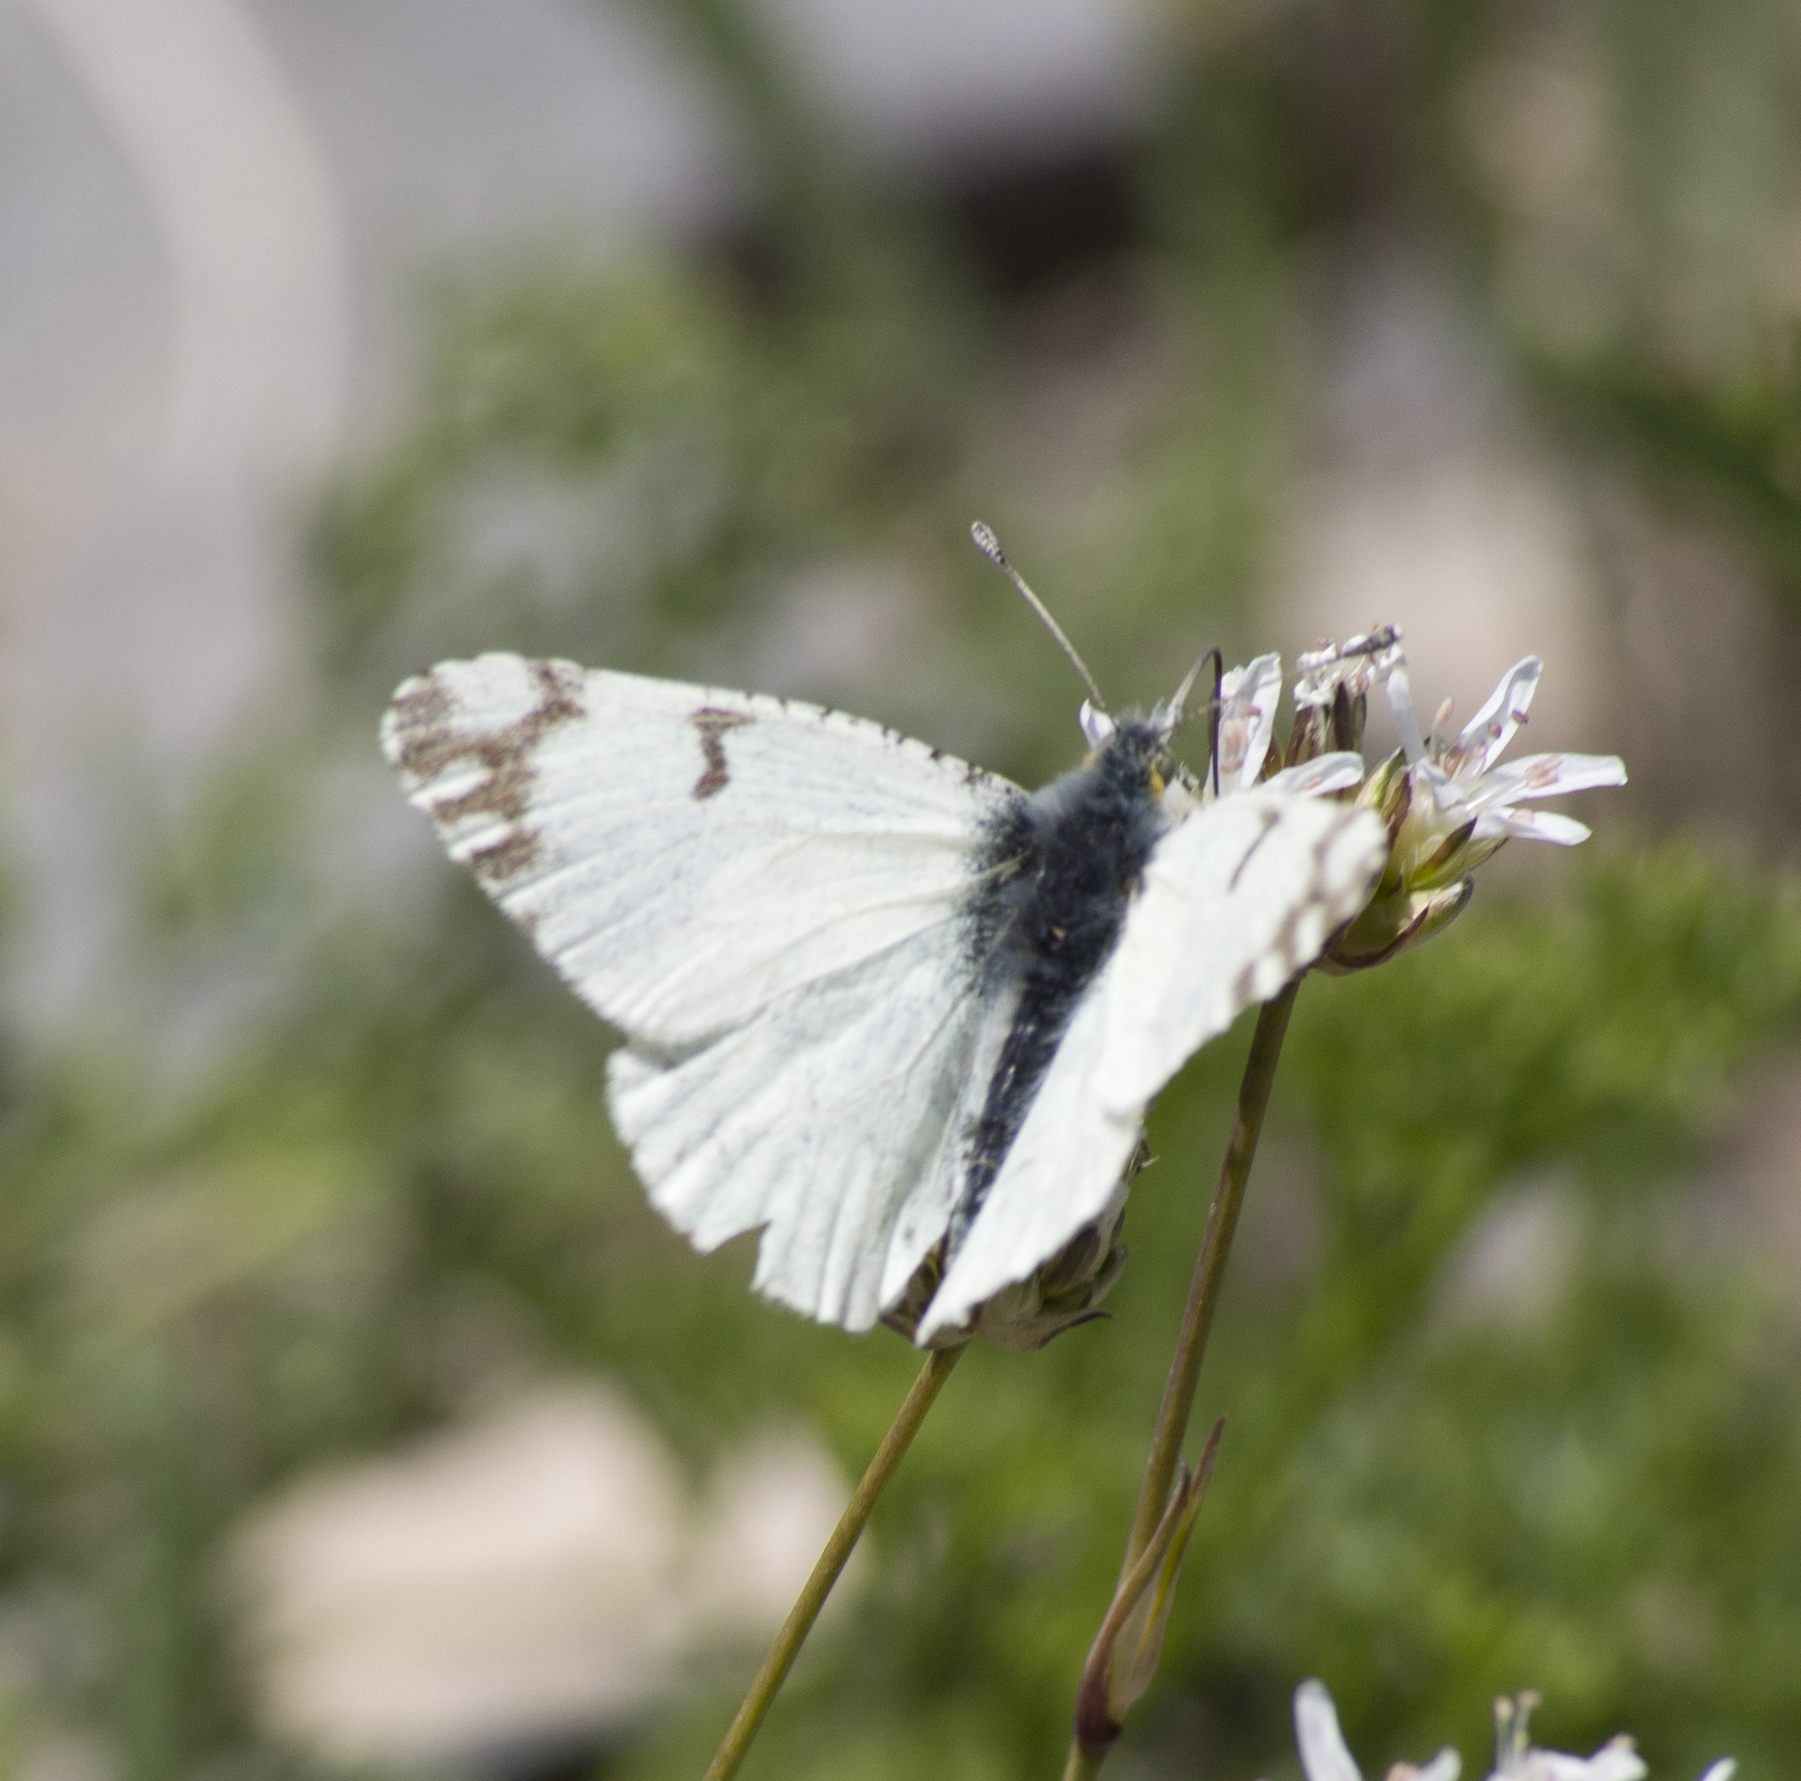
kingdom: Animalia
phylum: Arthropoda
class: Insecta
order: Lepidoptera
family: Pieridae
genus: Euchloe
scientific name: Euchloe ausonides
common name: Creamy marblewing
